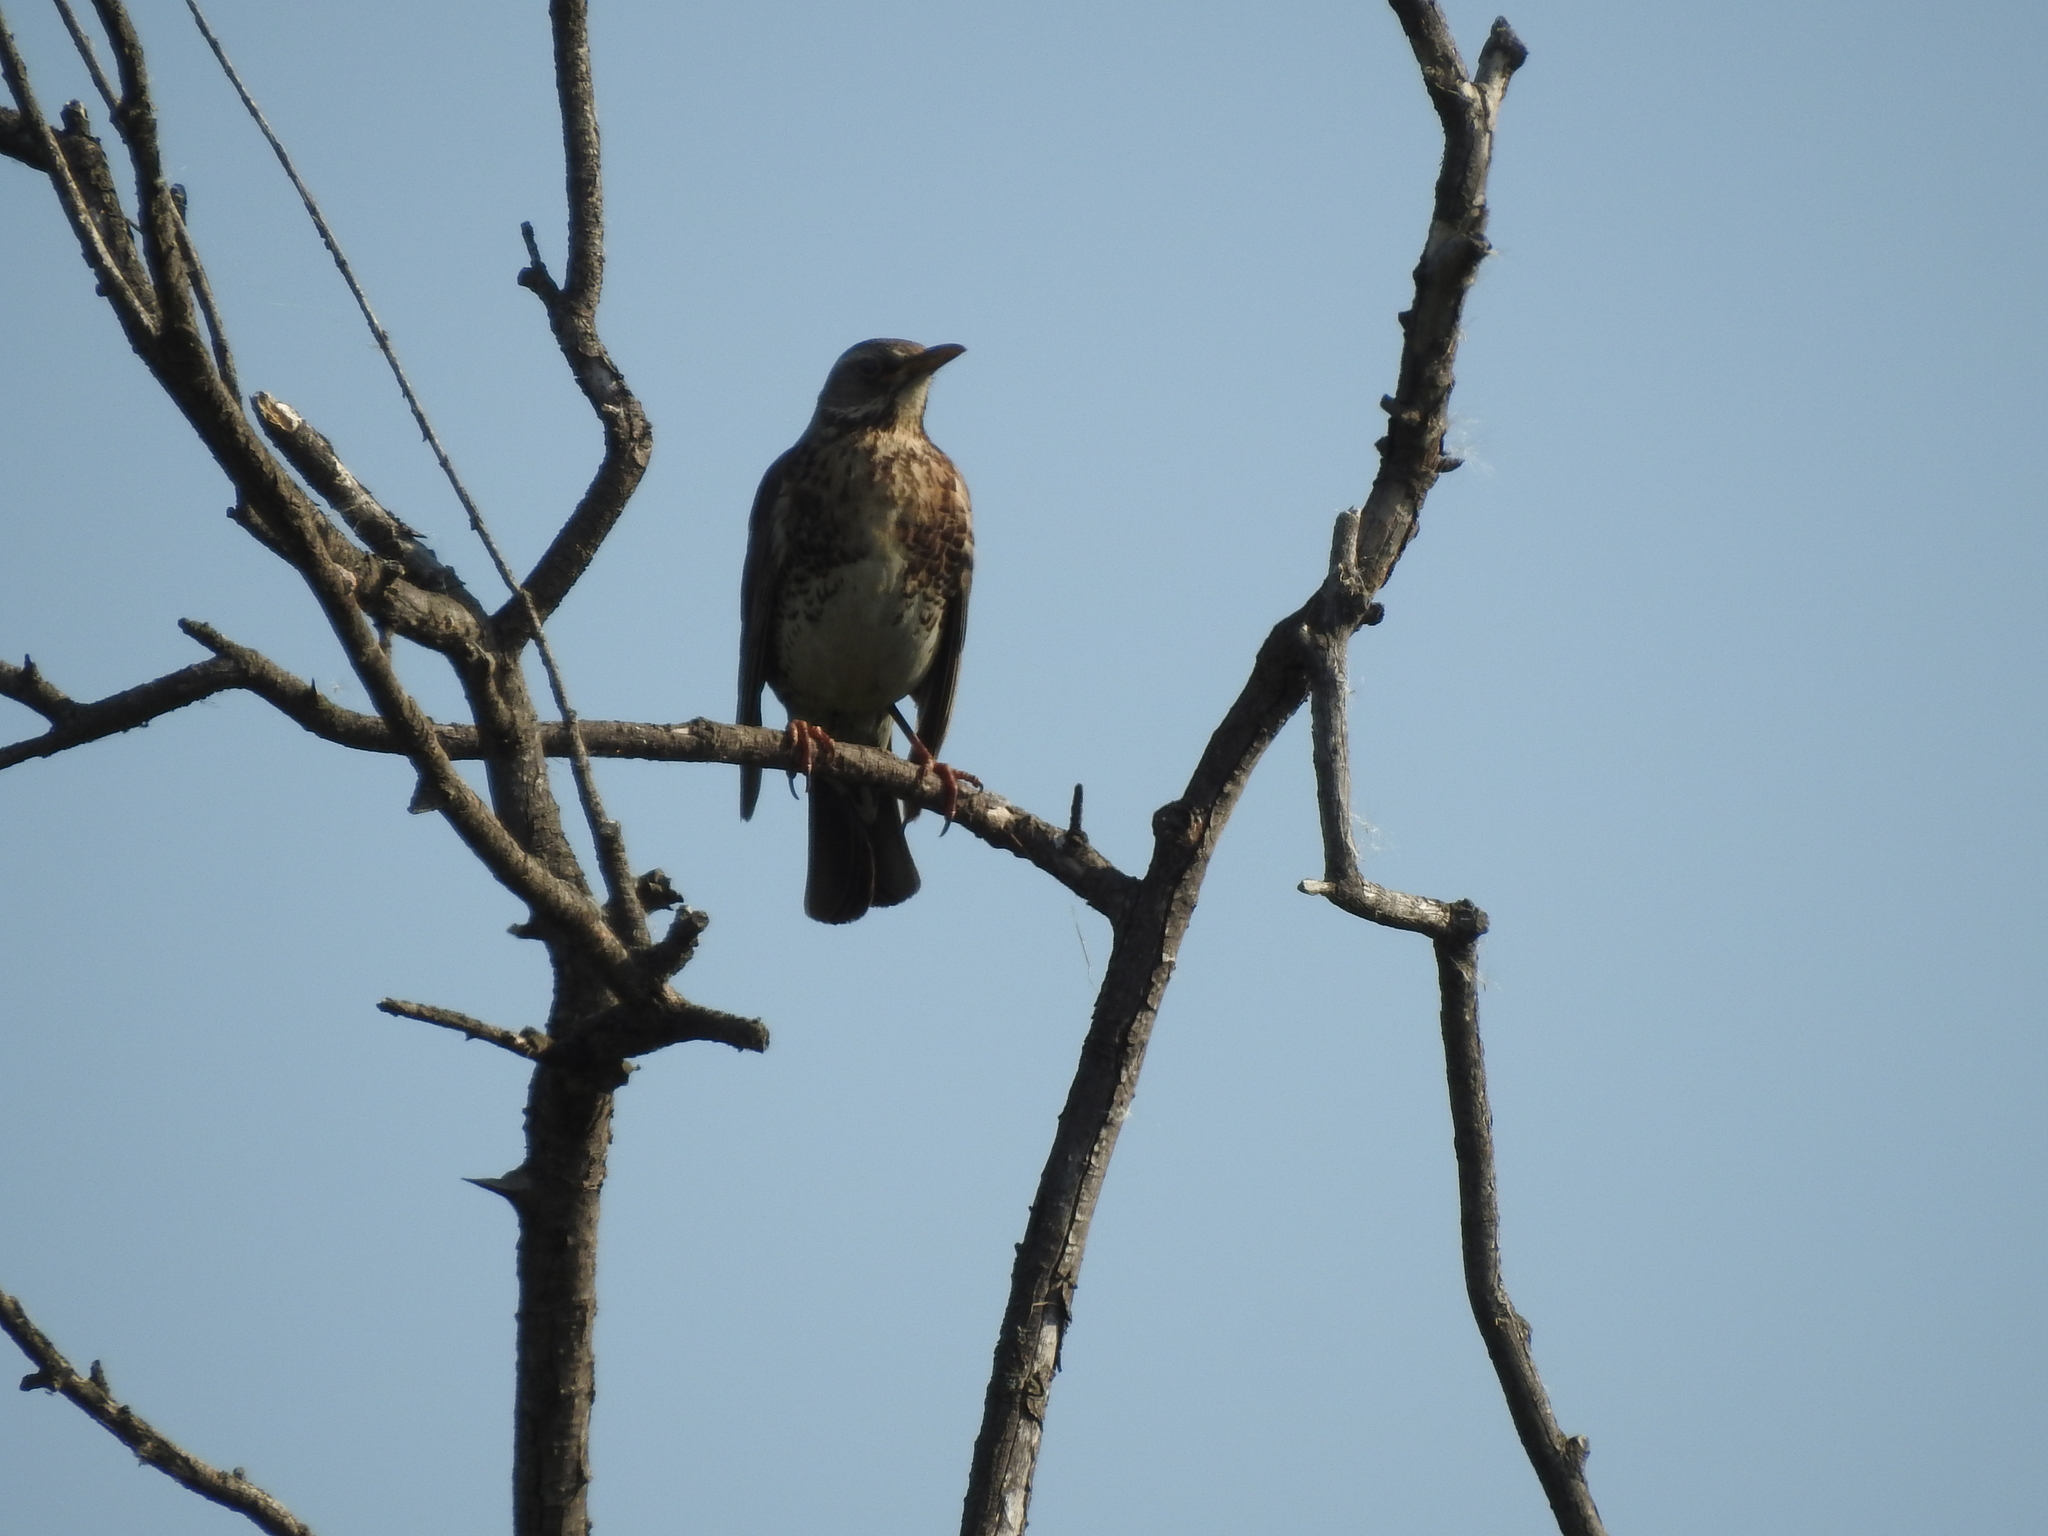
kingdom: Animalia
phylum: Chordata
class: Aves
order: Passeriformes
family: Turdidae
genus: Turdus
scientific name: Turdus pilaris
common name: Fieldfare
